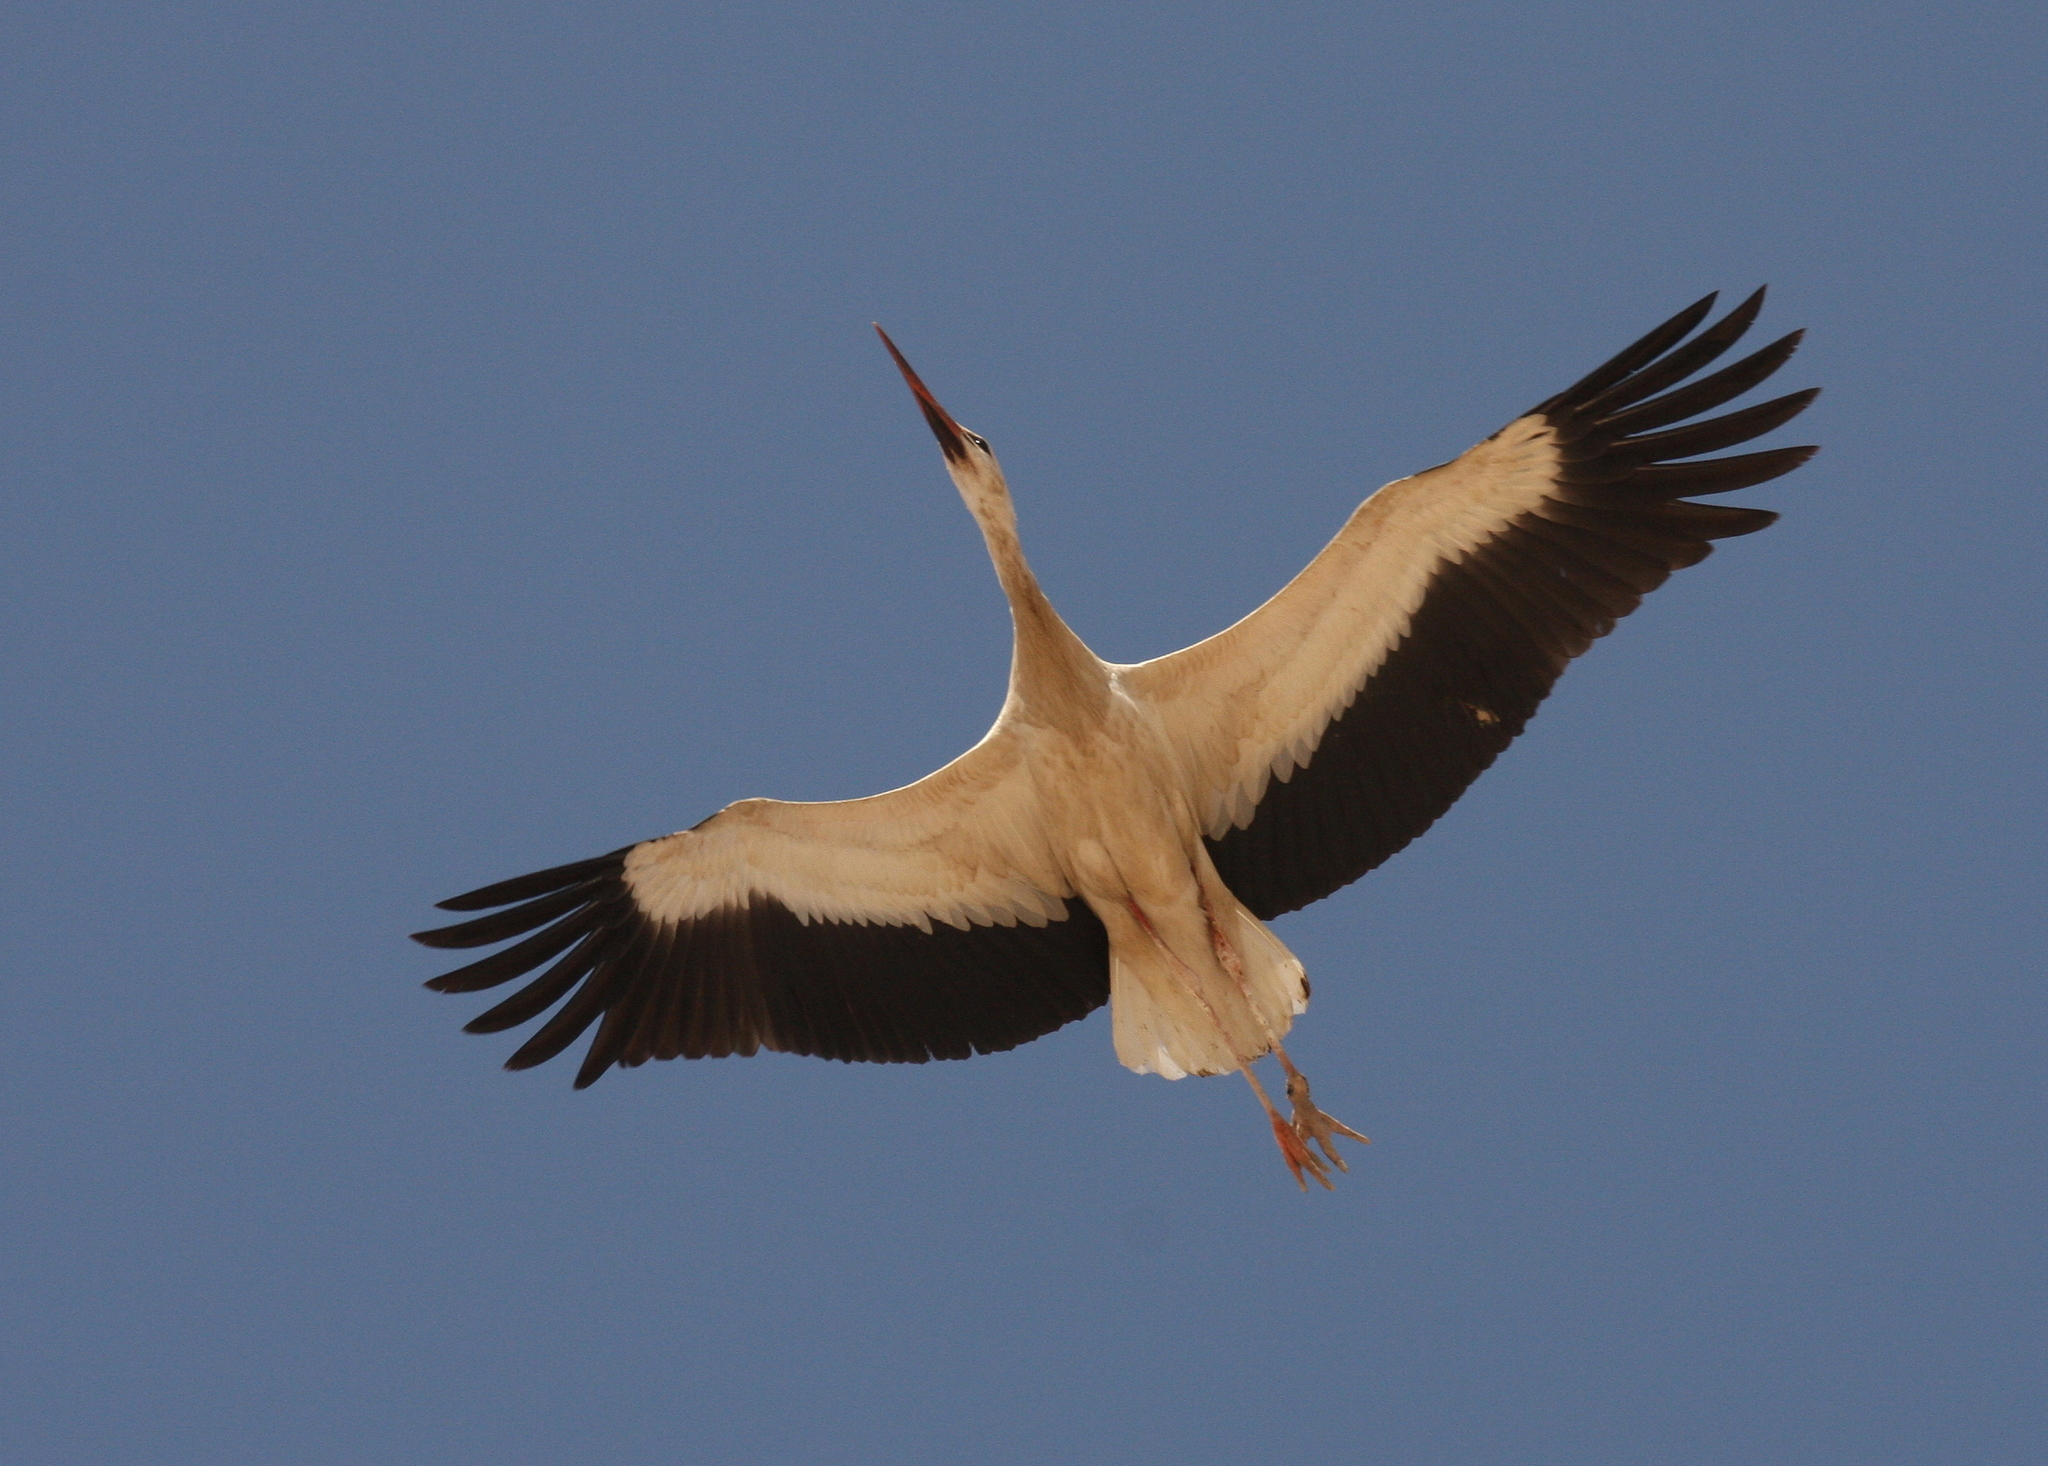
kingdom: Animalia
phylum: Chordata
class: Aves
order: Ciconiiformes
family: Ciconiidae
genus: Ciconia
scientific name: Ciconia ciconia
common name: White stork
